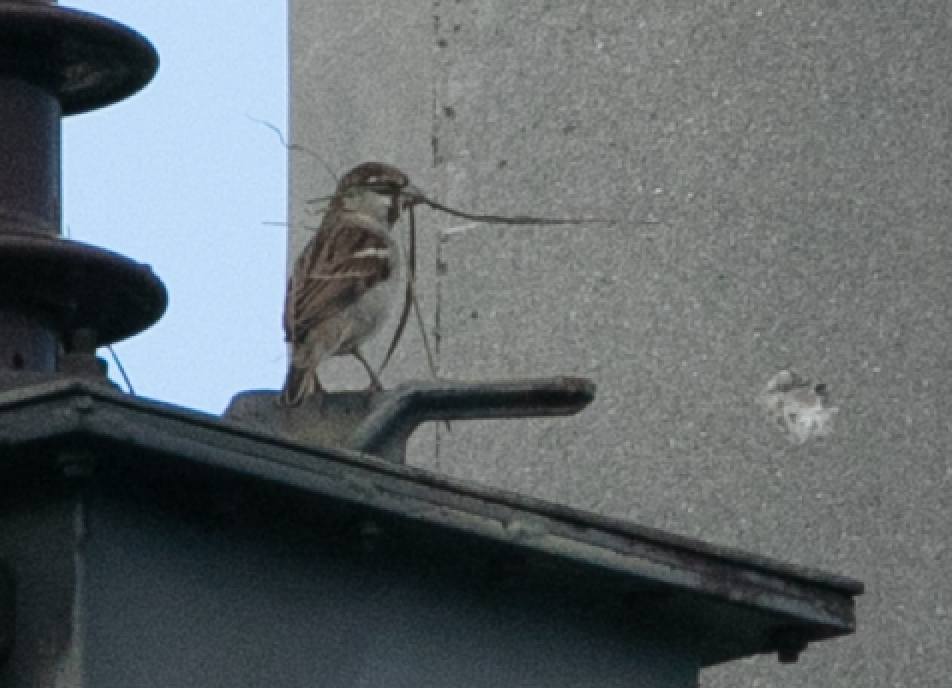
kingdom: Animalia
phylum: Chordata
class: Aves
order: Passeriformes
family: Passeridae
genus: Passer
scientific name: Passer italiae
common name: Italian sparrow
